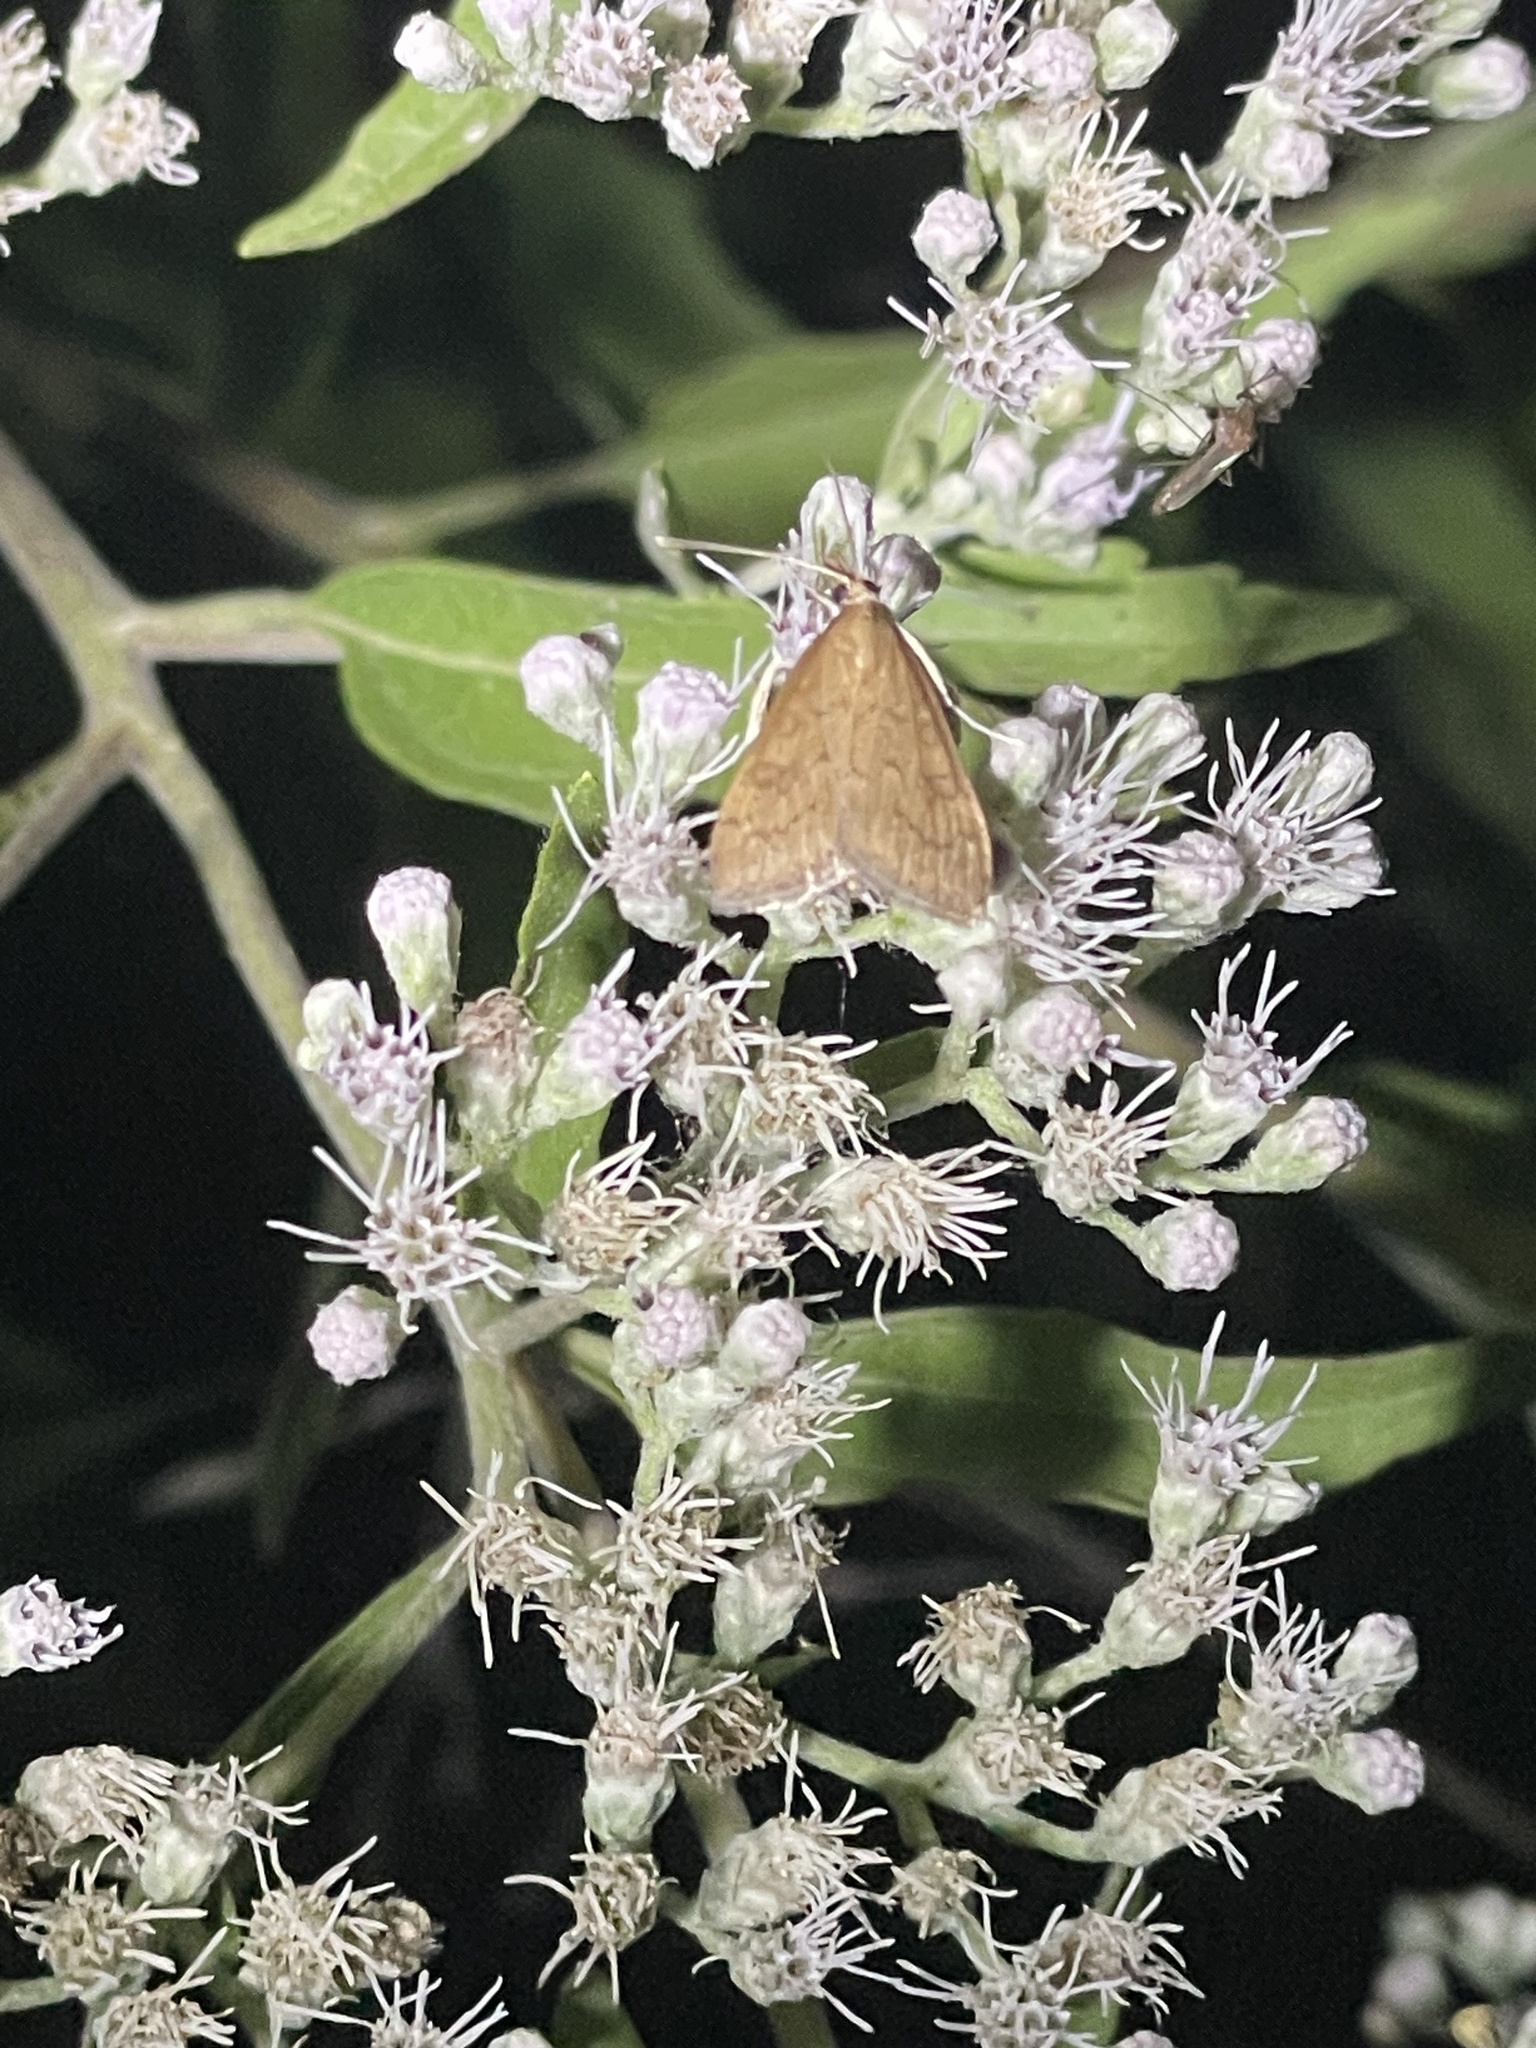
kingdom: Animalia
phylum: Arthropoda
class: Insecta
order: Lepidoptera
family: Crambidae
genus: Udea
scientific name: Udea rubigalis
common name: Celery leaftier moth
